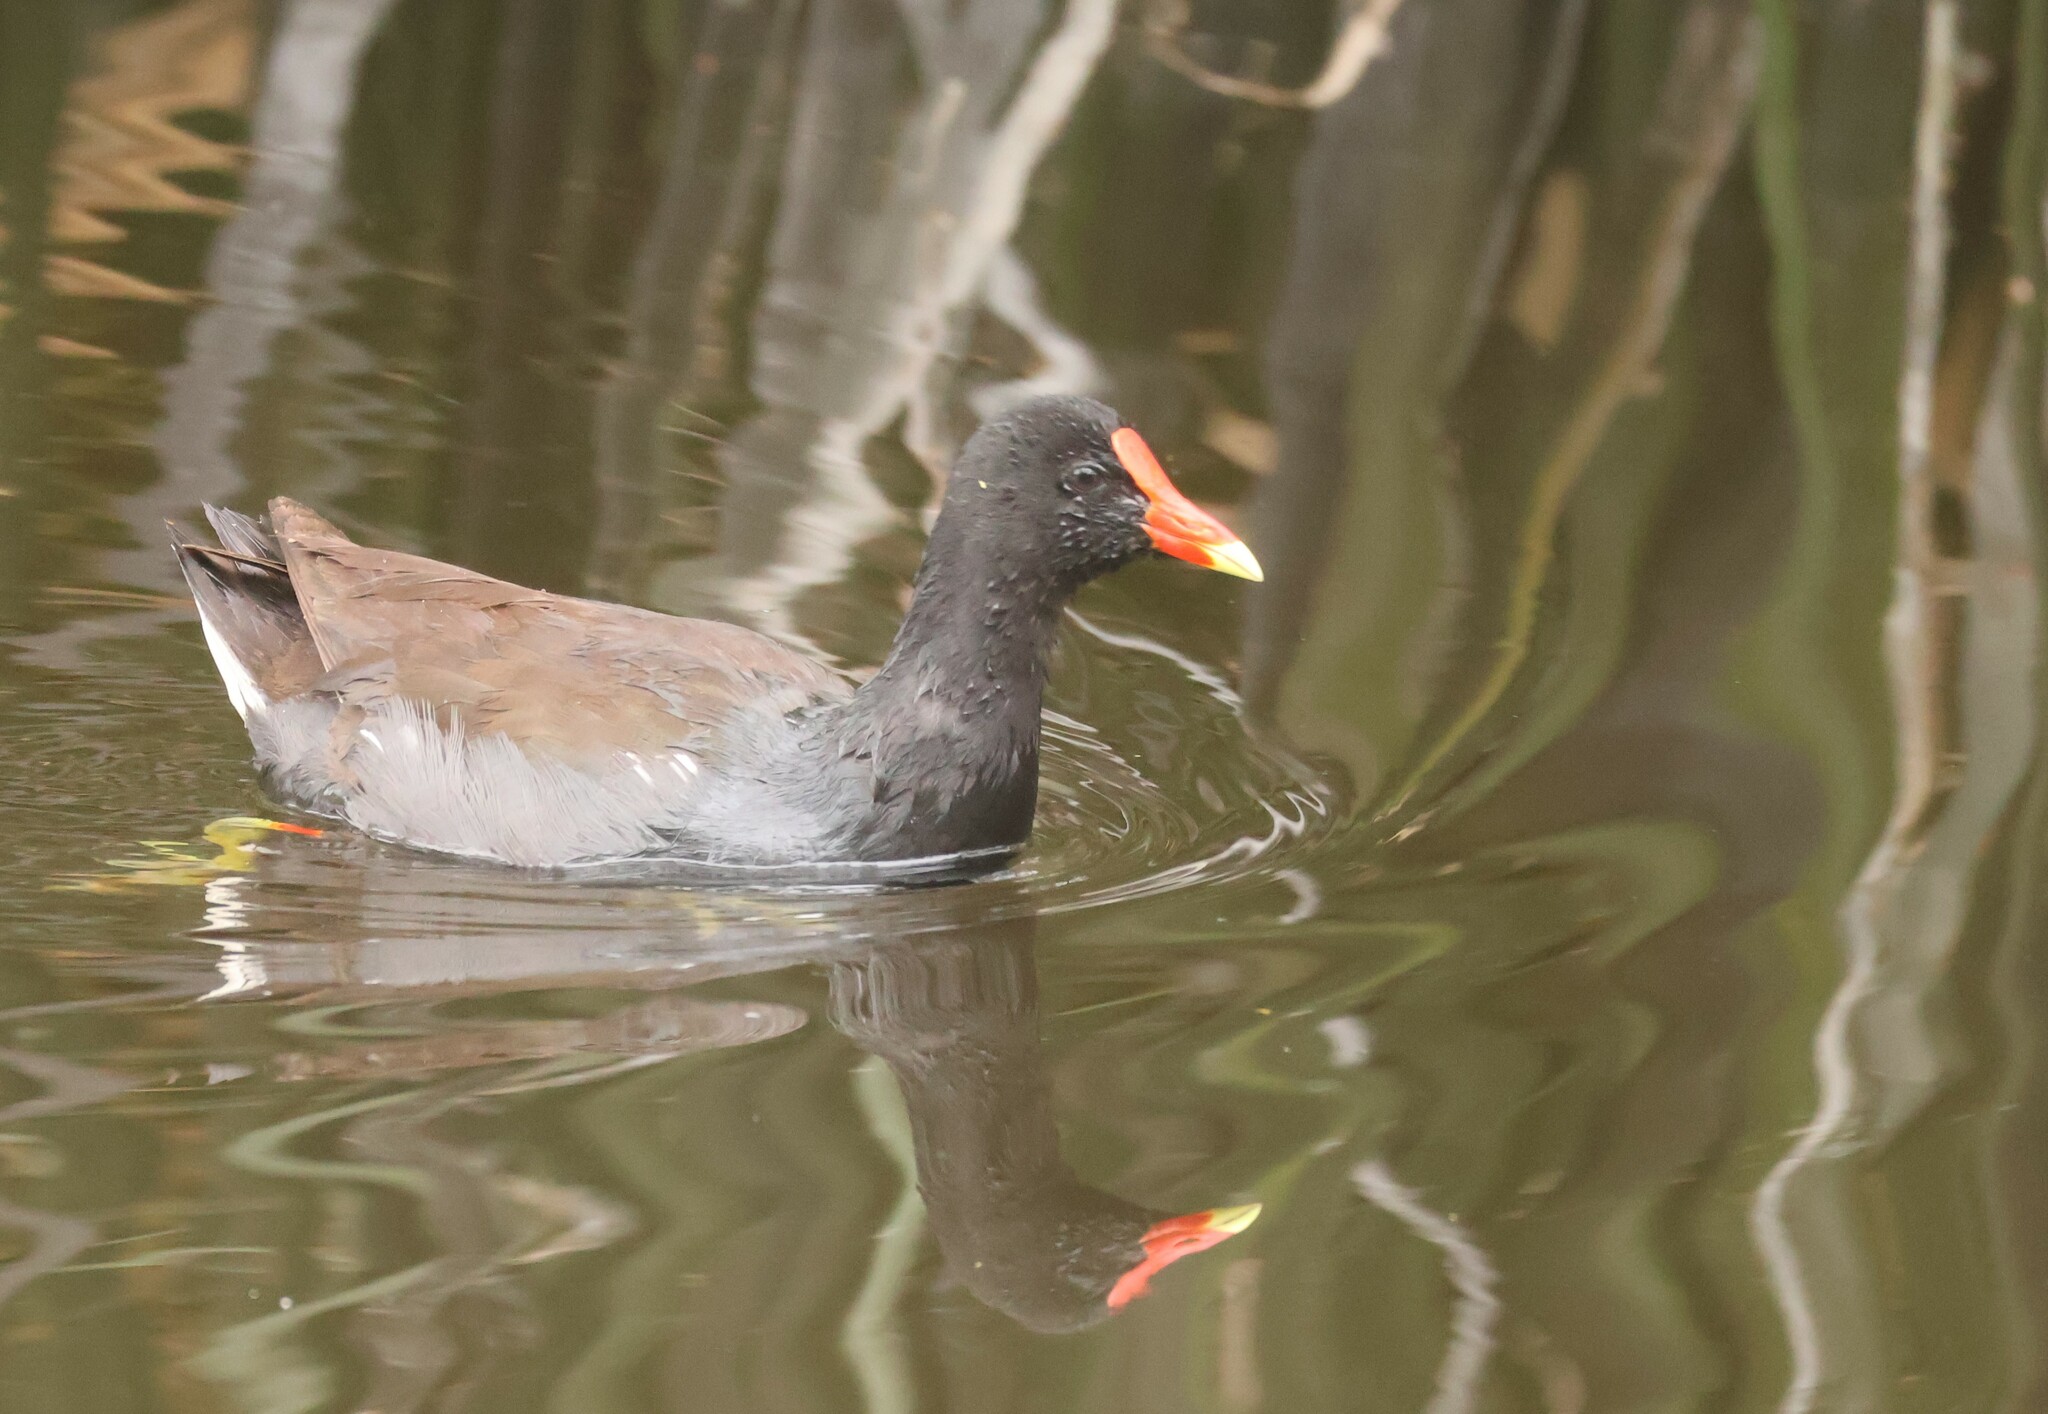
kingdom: Animalia
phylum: Chordata
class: Aves
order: Gruiformes
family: Rallidae
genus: Gallinula
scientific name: Gallinula chloropus
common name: Common moorhen
